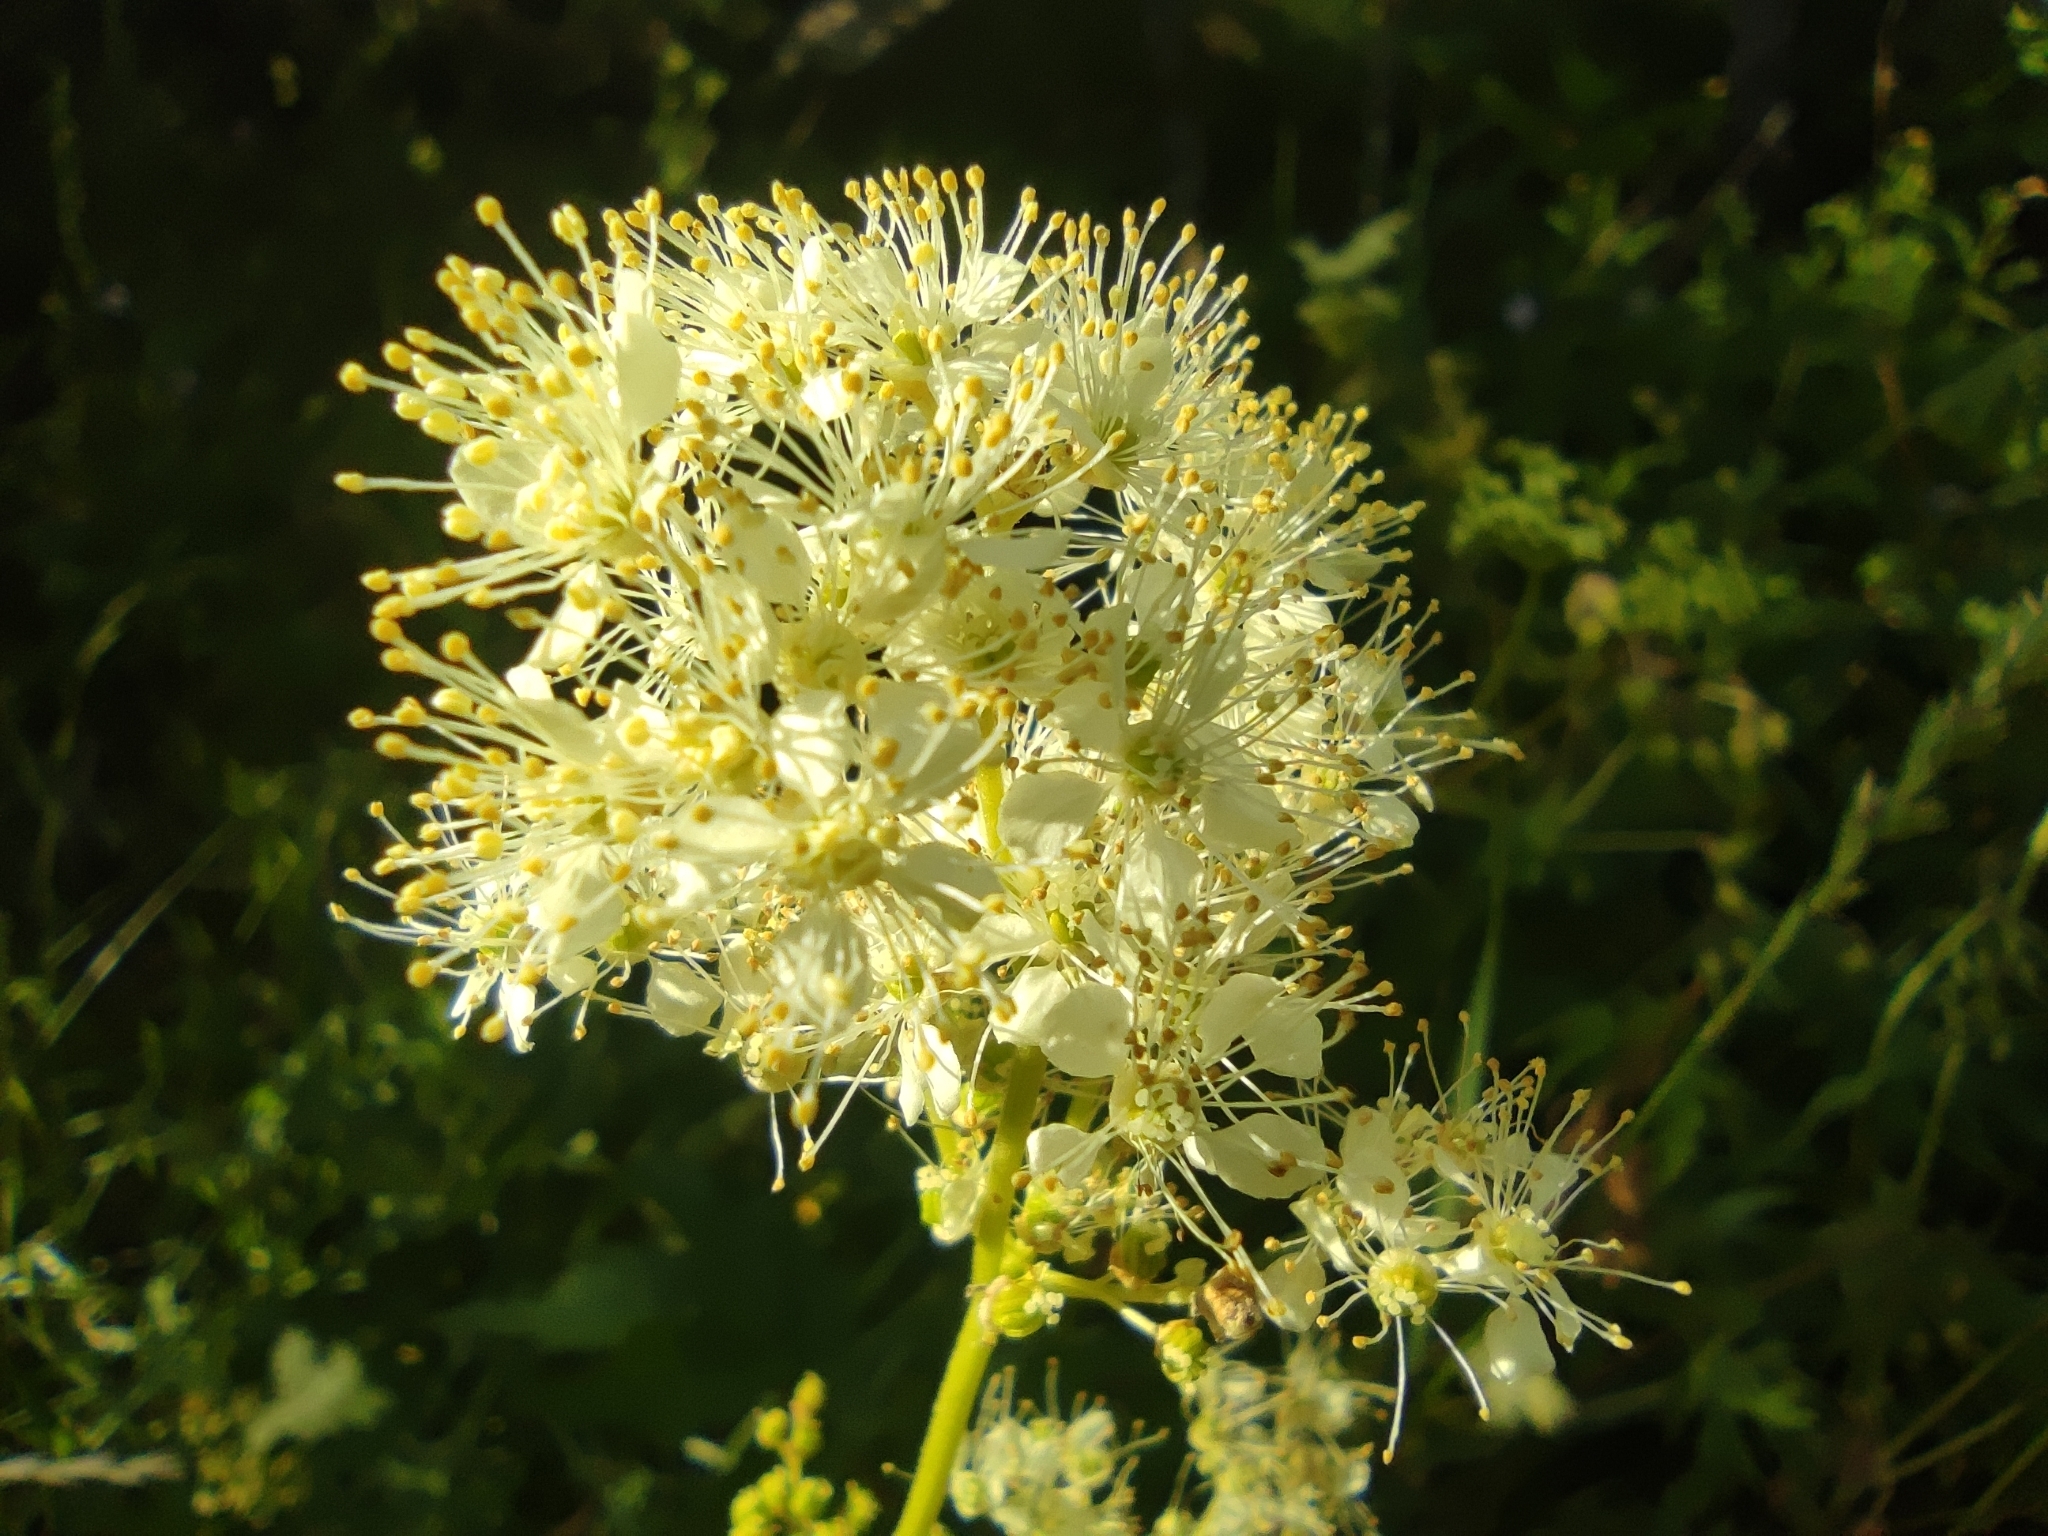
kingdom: Plantae
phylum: Tracheophyta
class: Magnoliopsida
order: Rosales
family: Rosaceae
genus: Filipendula
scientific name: Filipendula ulmaria
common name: Meadowsweet
